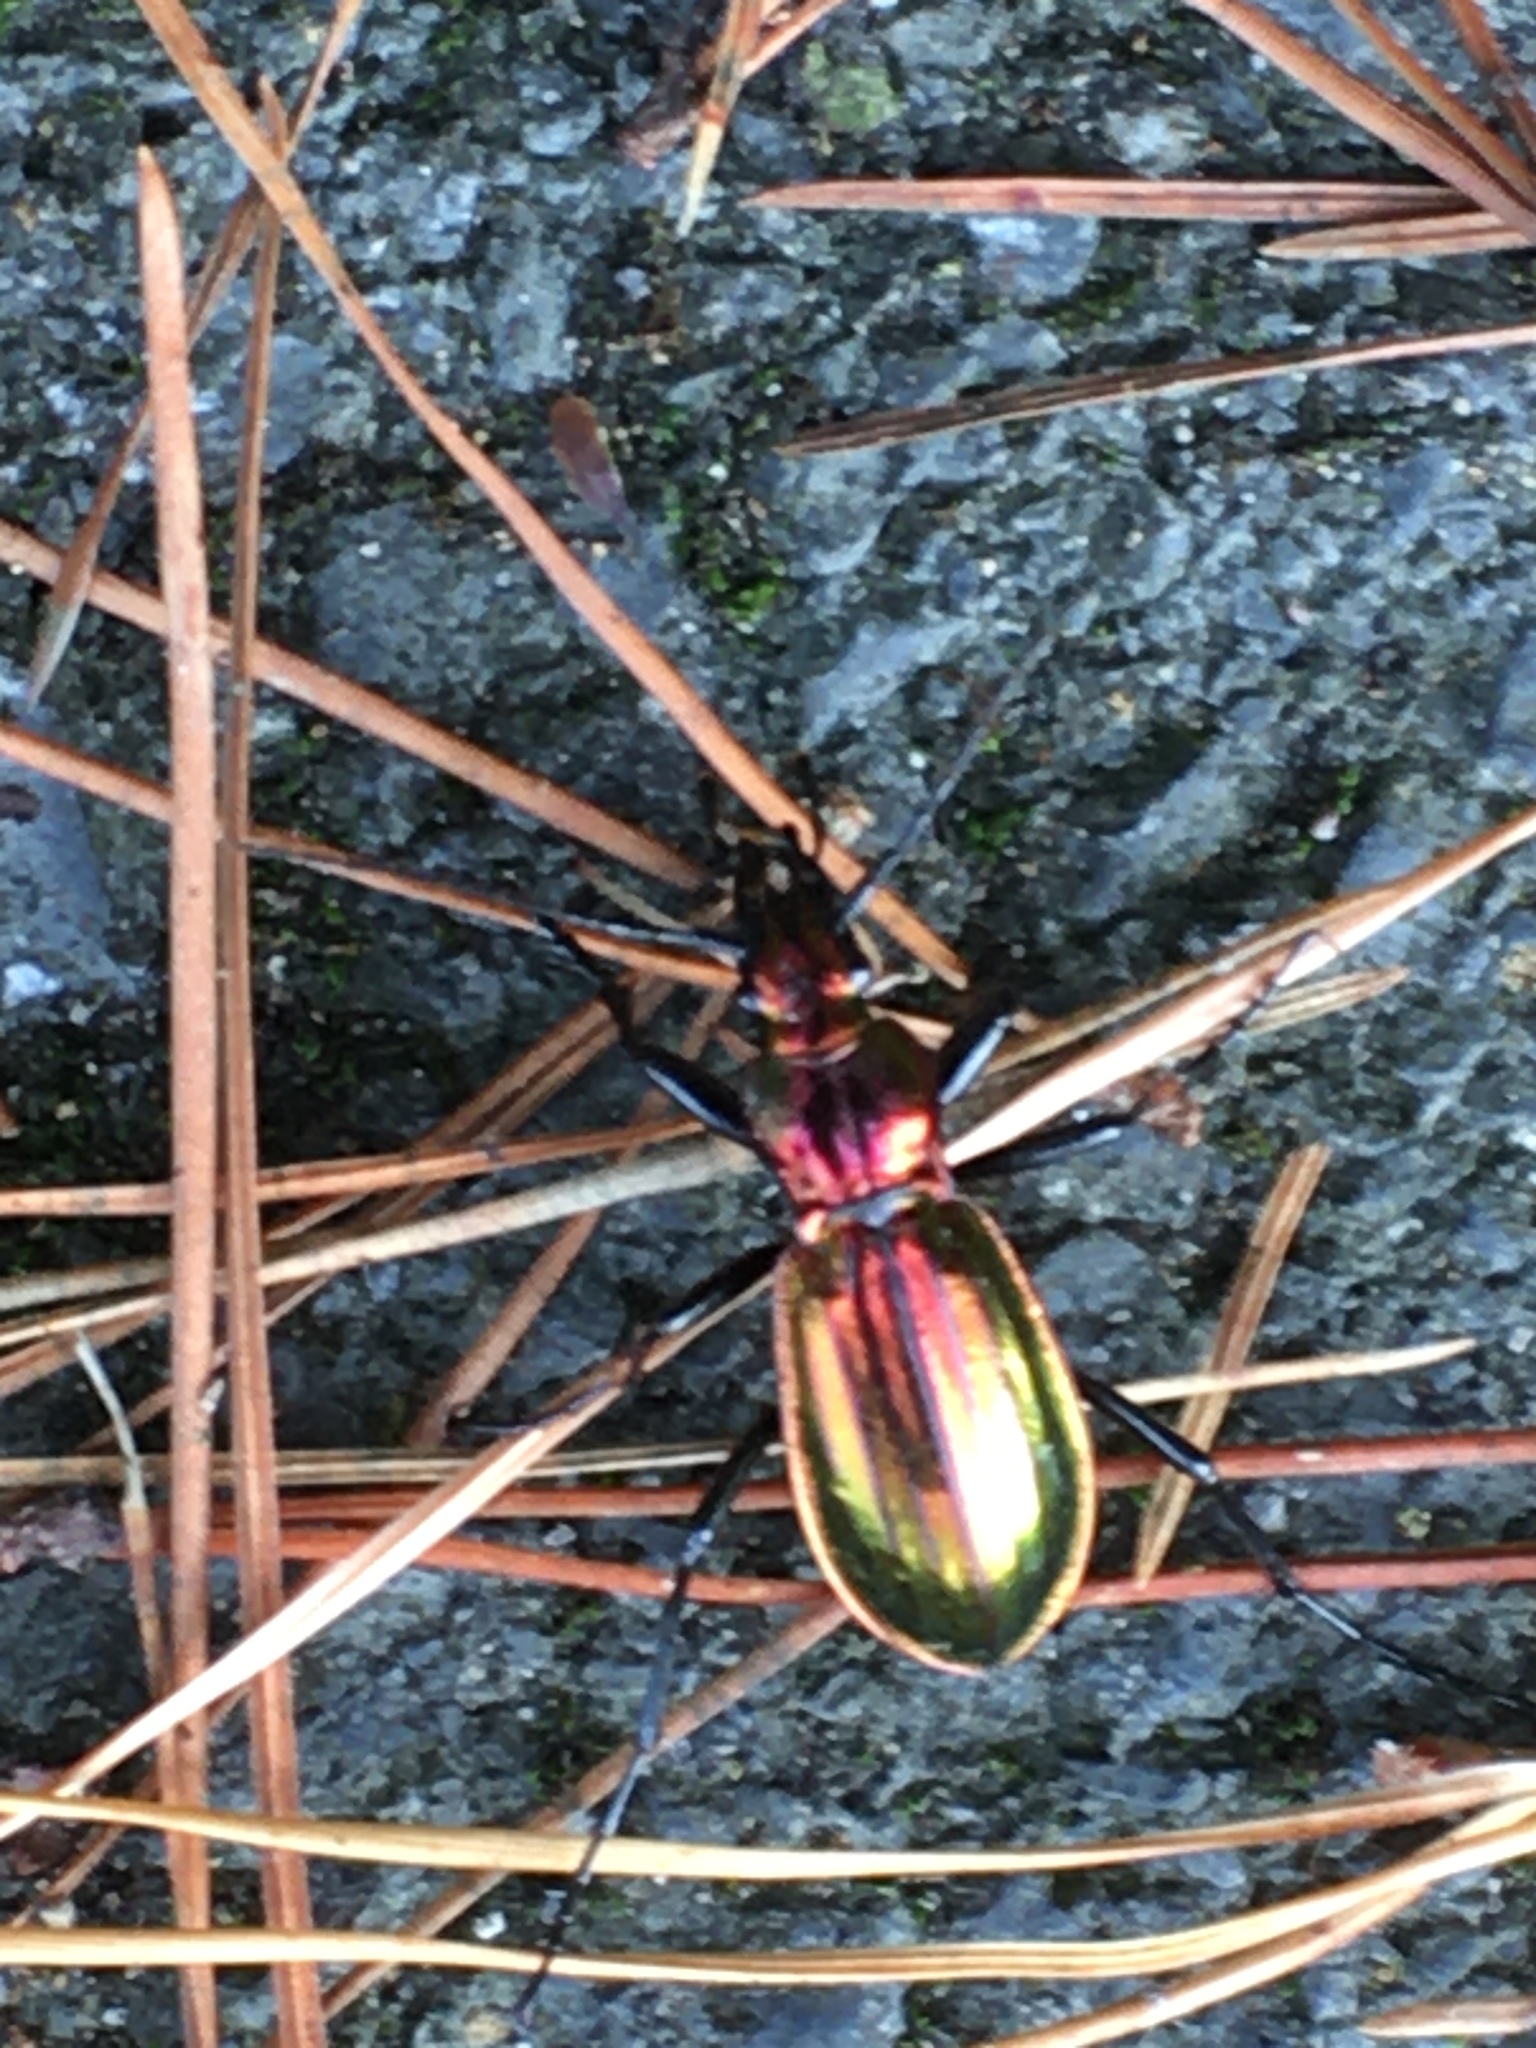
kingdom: Animalia
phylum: Arthropoda
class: Insecta
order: Coleoptera
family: Carabidae
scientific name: Carabidae
